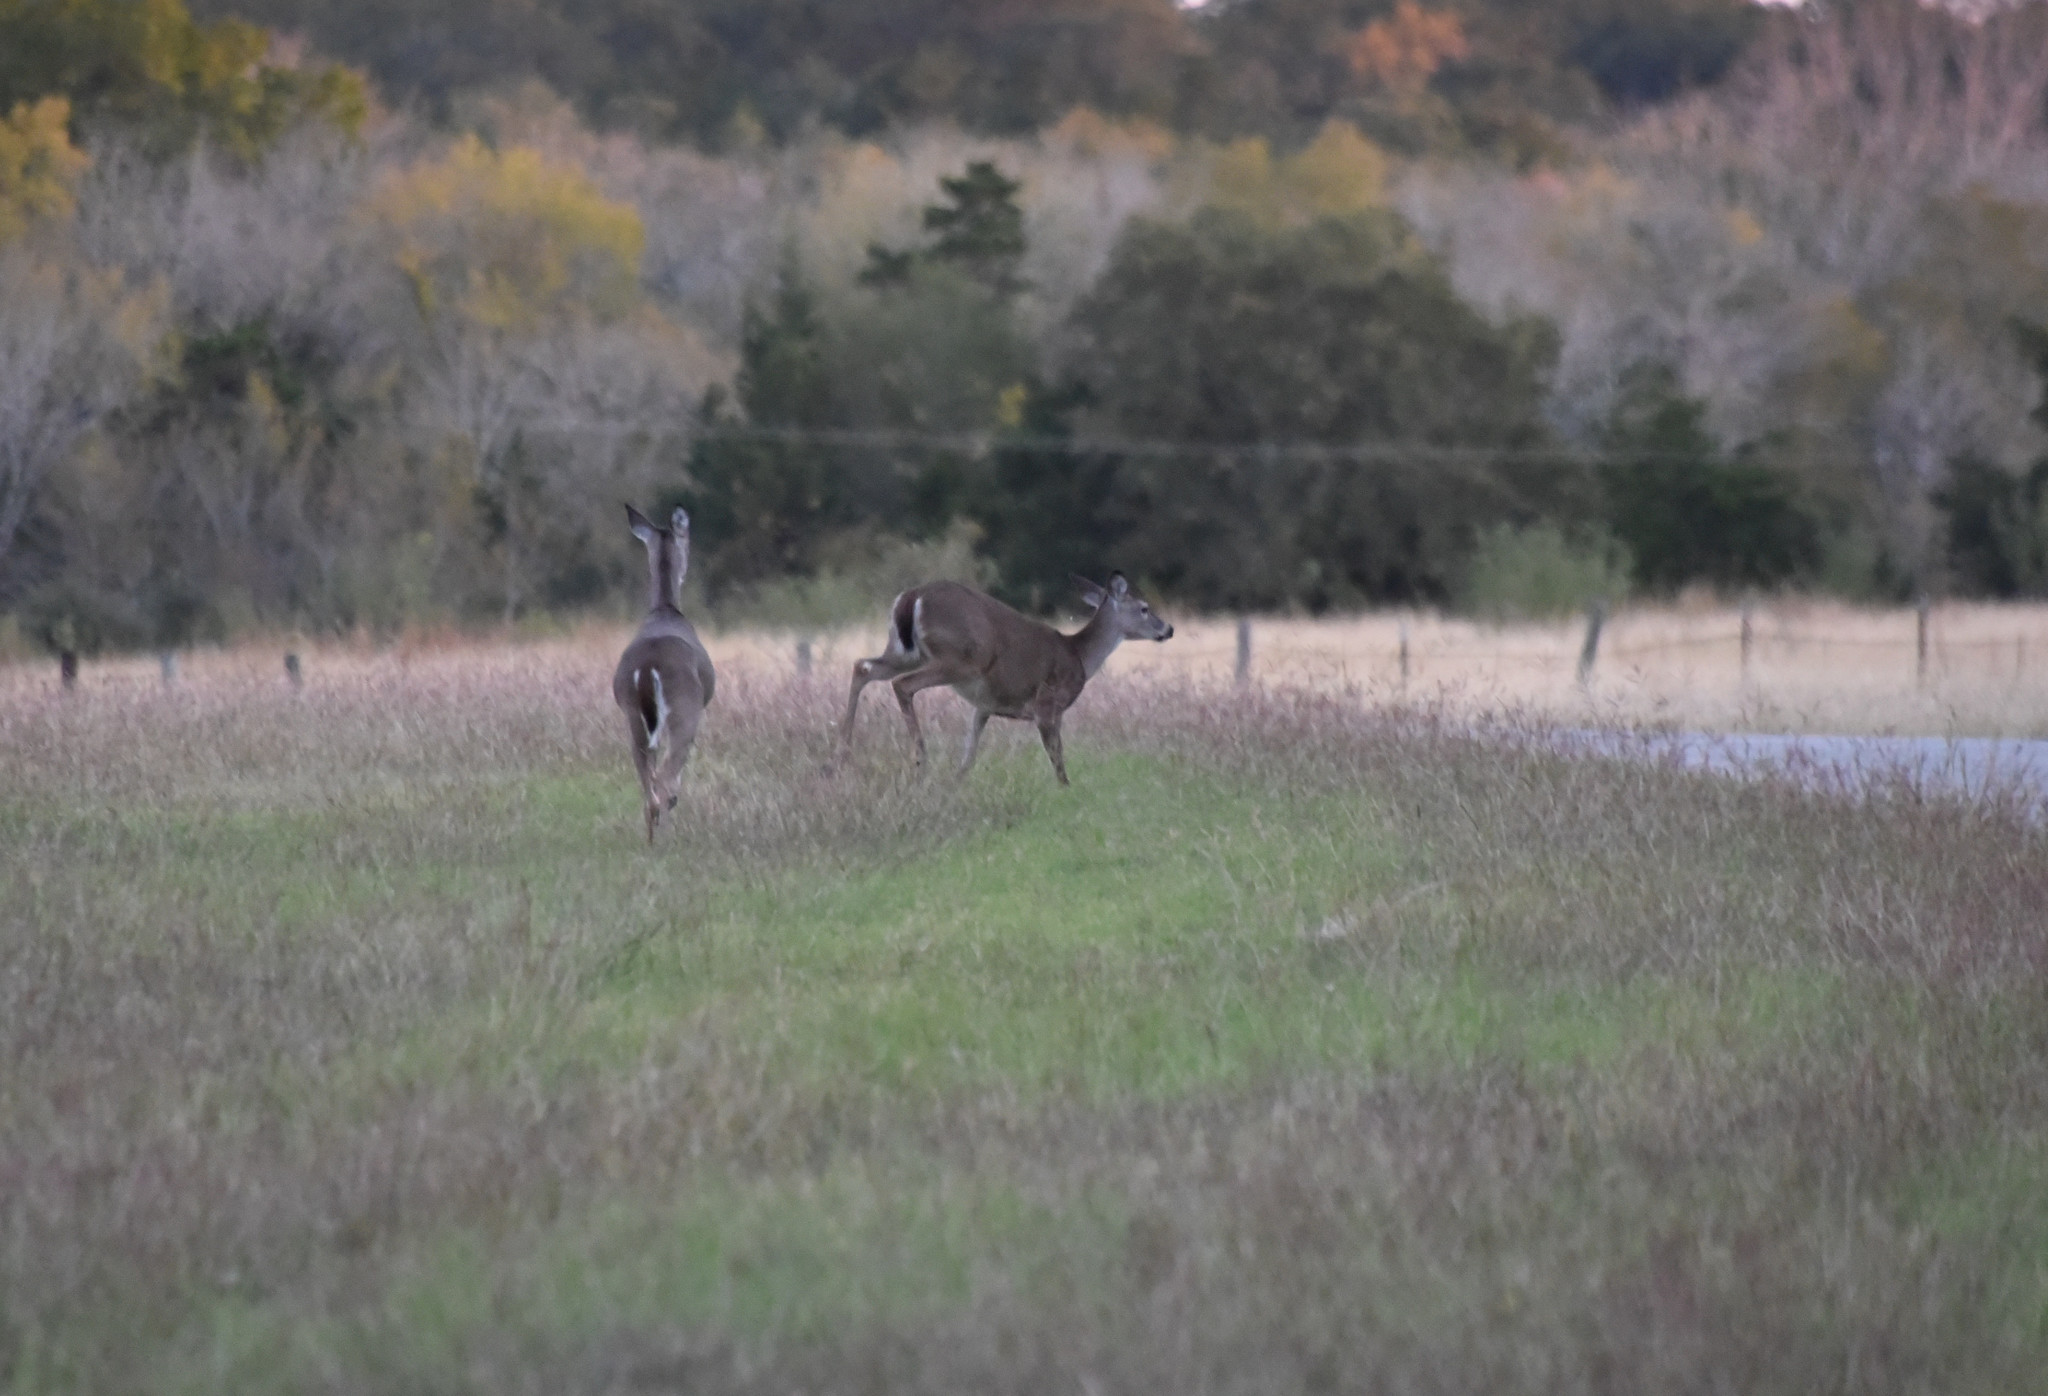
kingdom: Animalia
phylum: Chordata
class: Mammalia
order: Artiodactyla
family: Cervidae
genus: Odocoileus
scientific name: Odocoileus virginianus
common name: White-tailed deer
